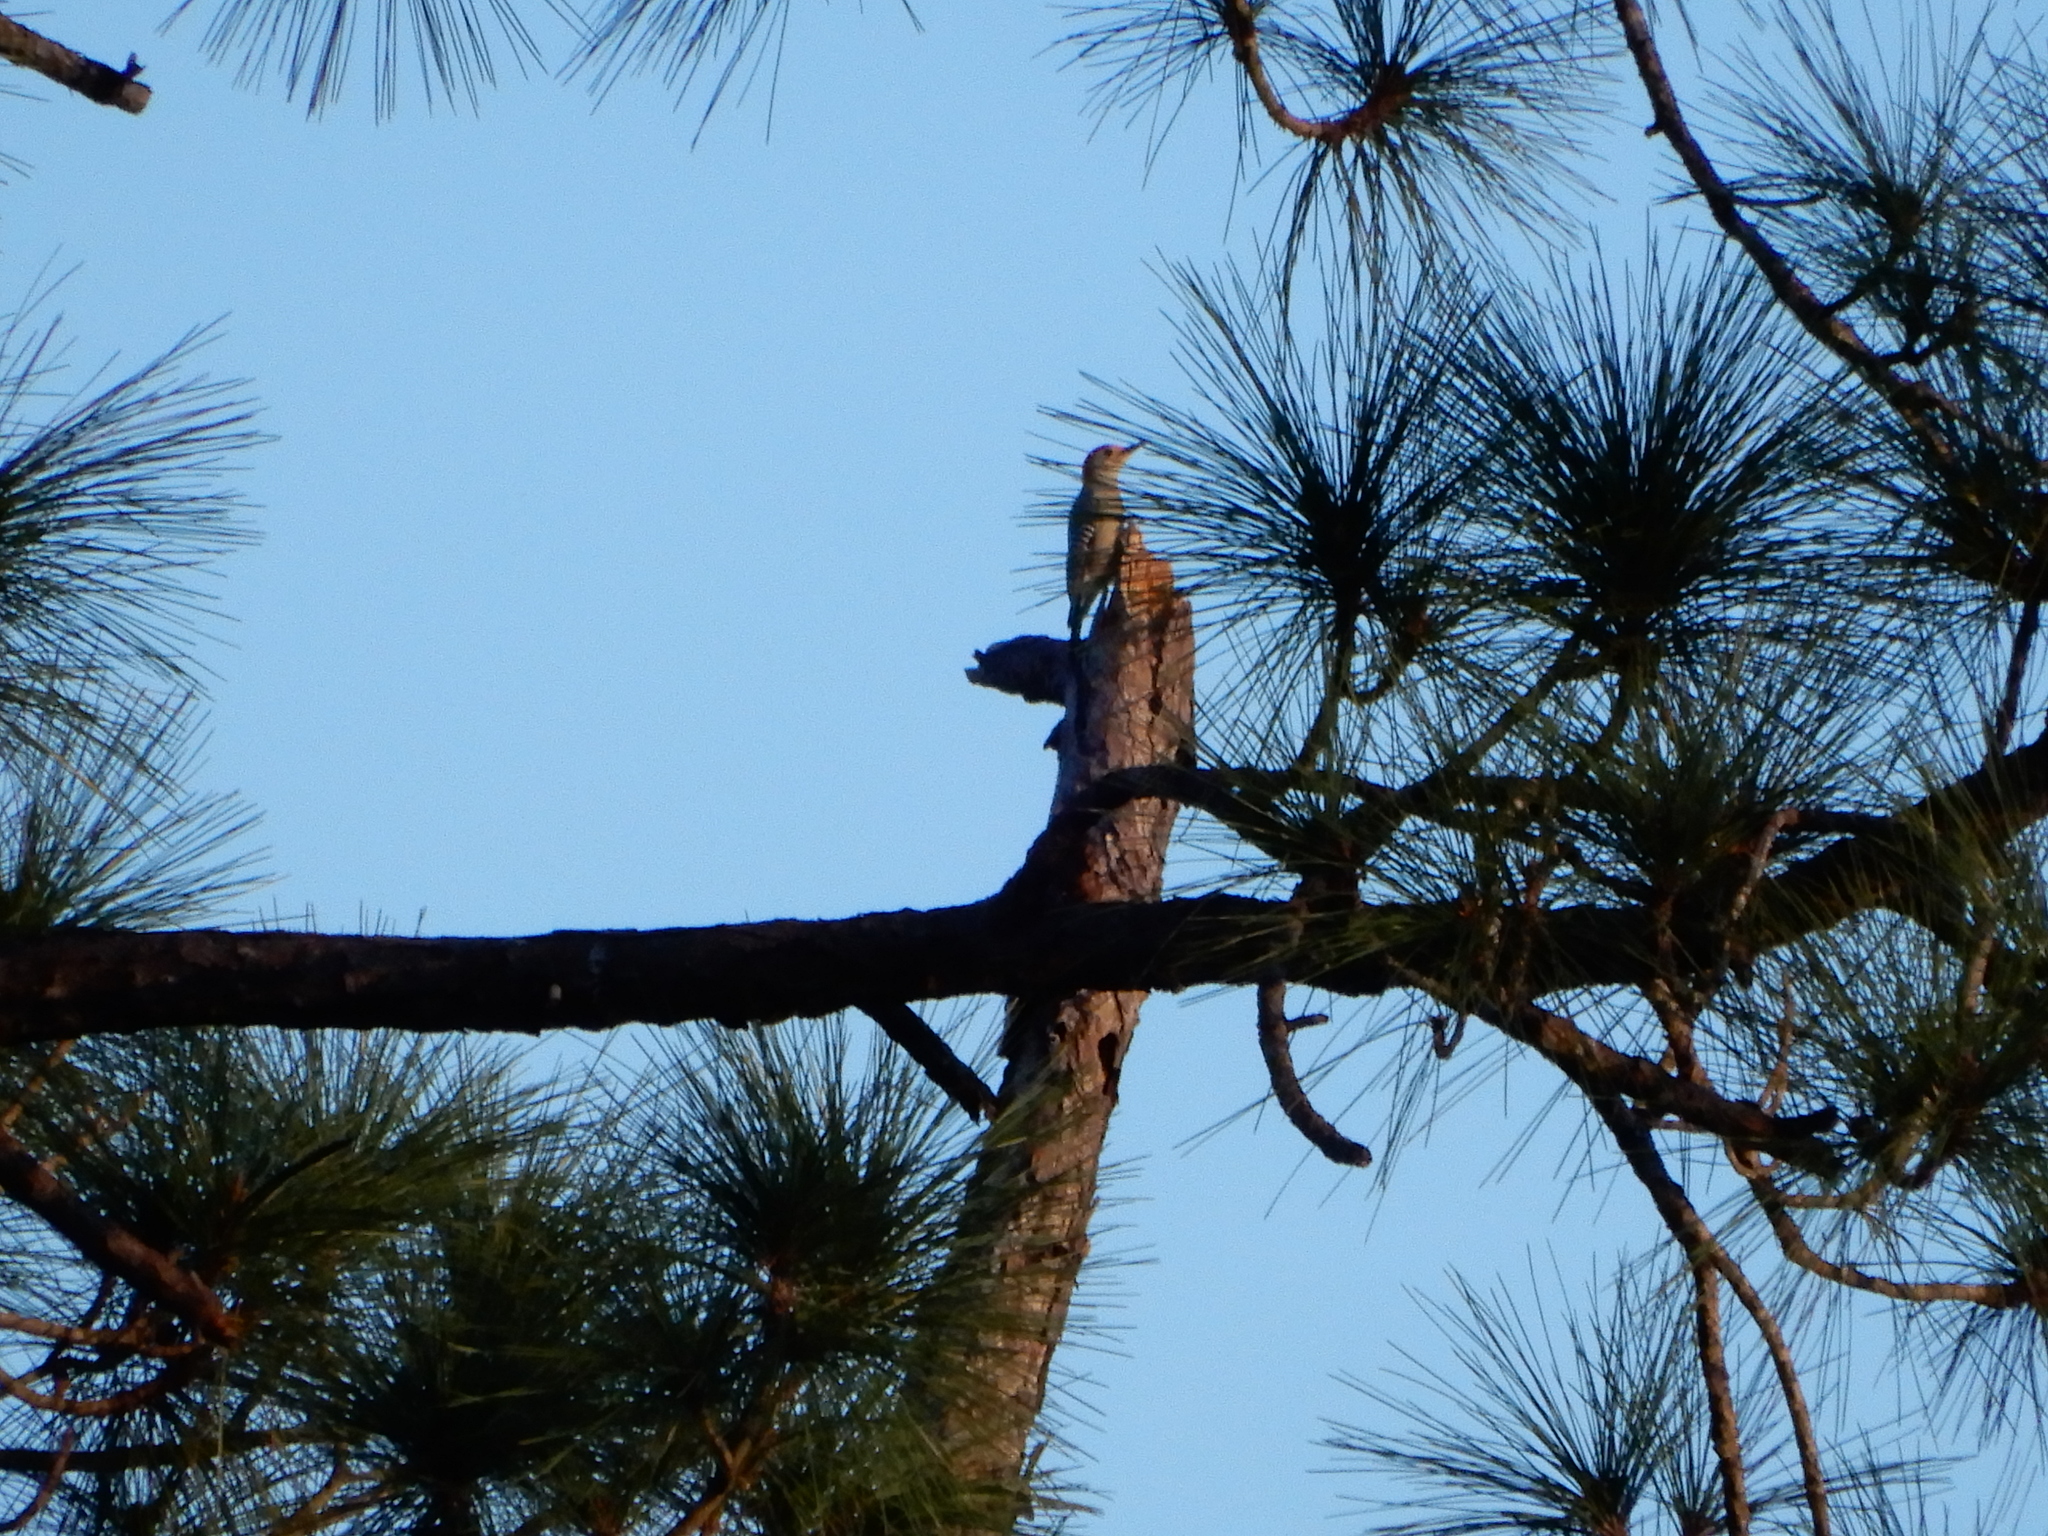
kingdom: Animalia
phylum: Chordata
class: Aves
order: Piciformes
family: Picidae
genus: Melanerpes
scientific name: Melanerpes carolinus
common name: Red-bellied woodpecker
